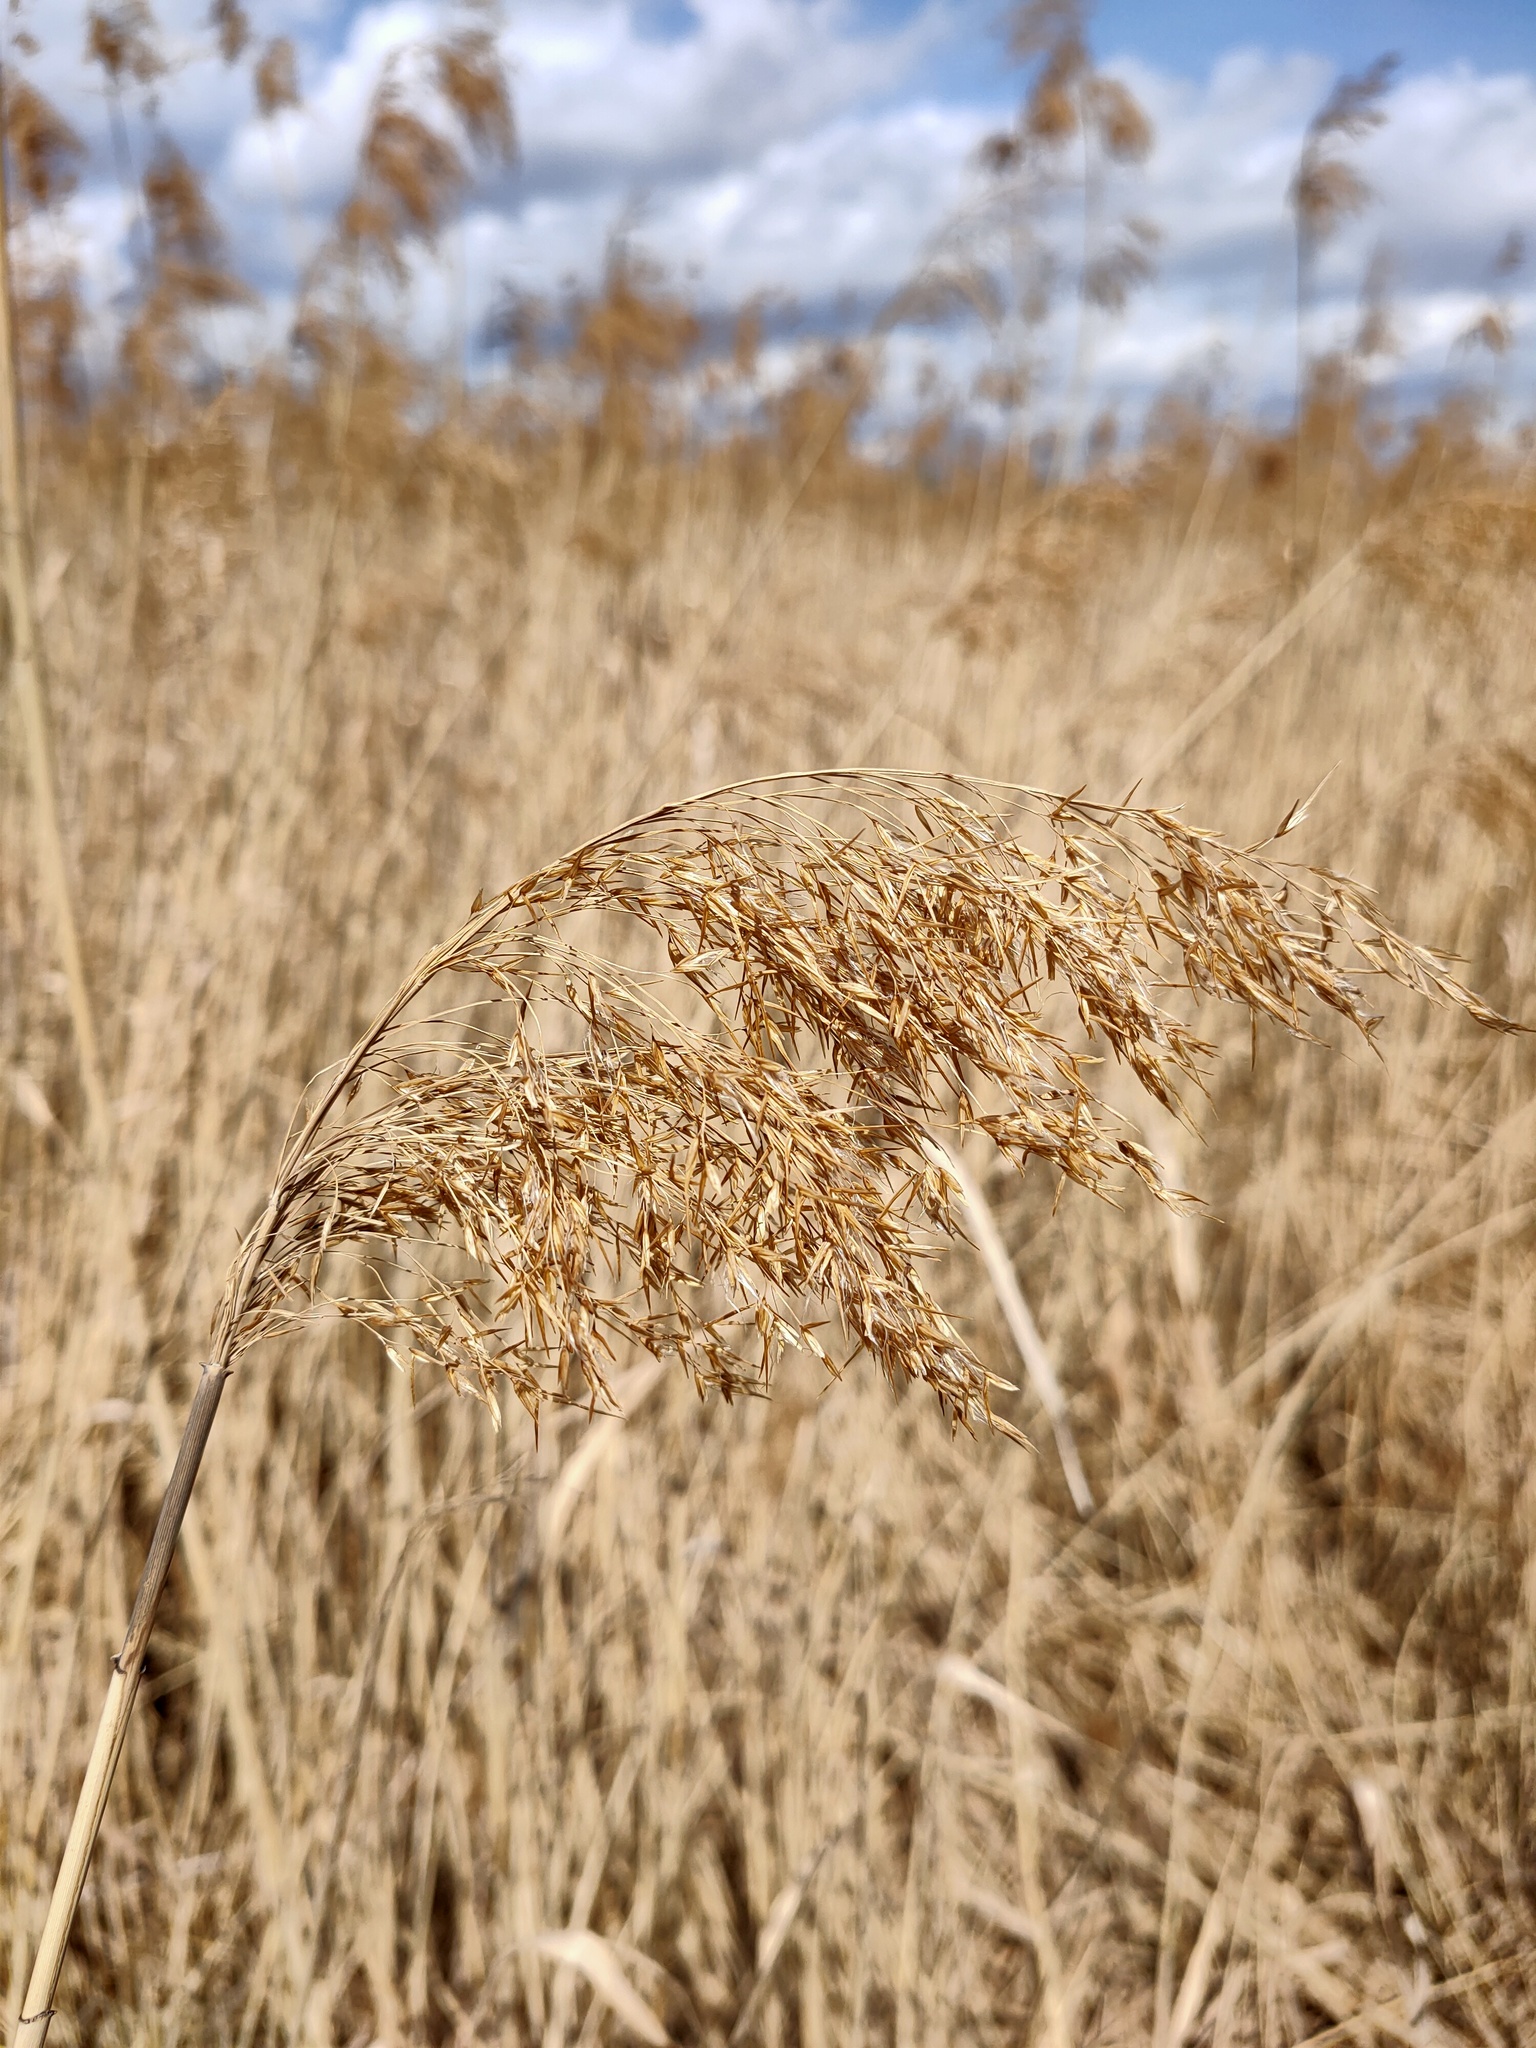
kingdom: Plantae
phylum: Tracheophyta
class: Liliopsida
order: Poales
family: Poaceae
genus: Phragmites
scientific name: Phragmites australis
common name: Common reed
